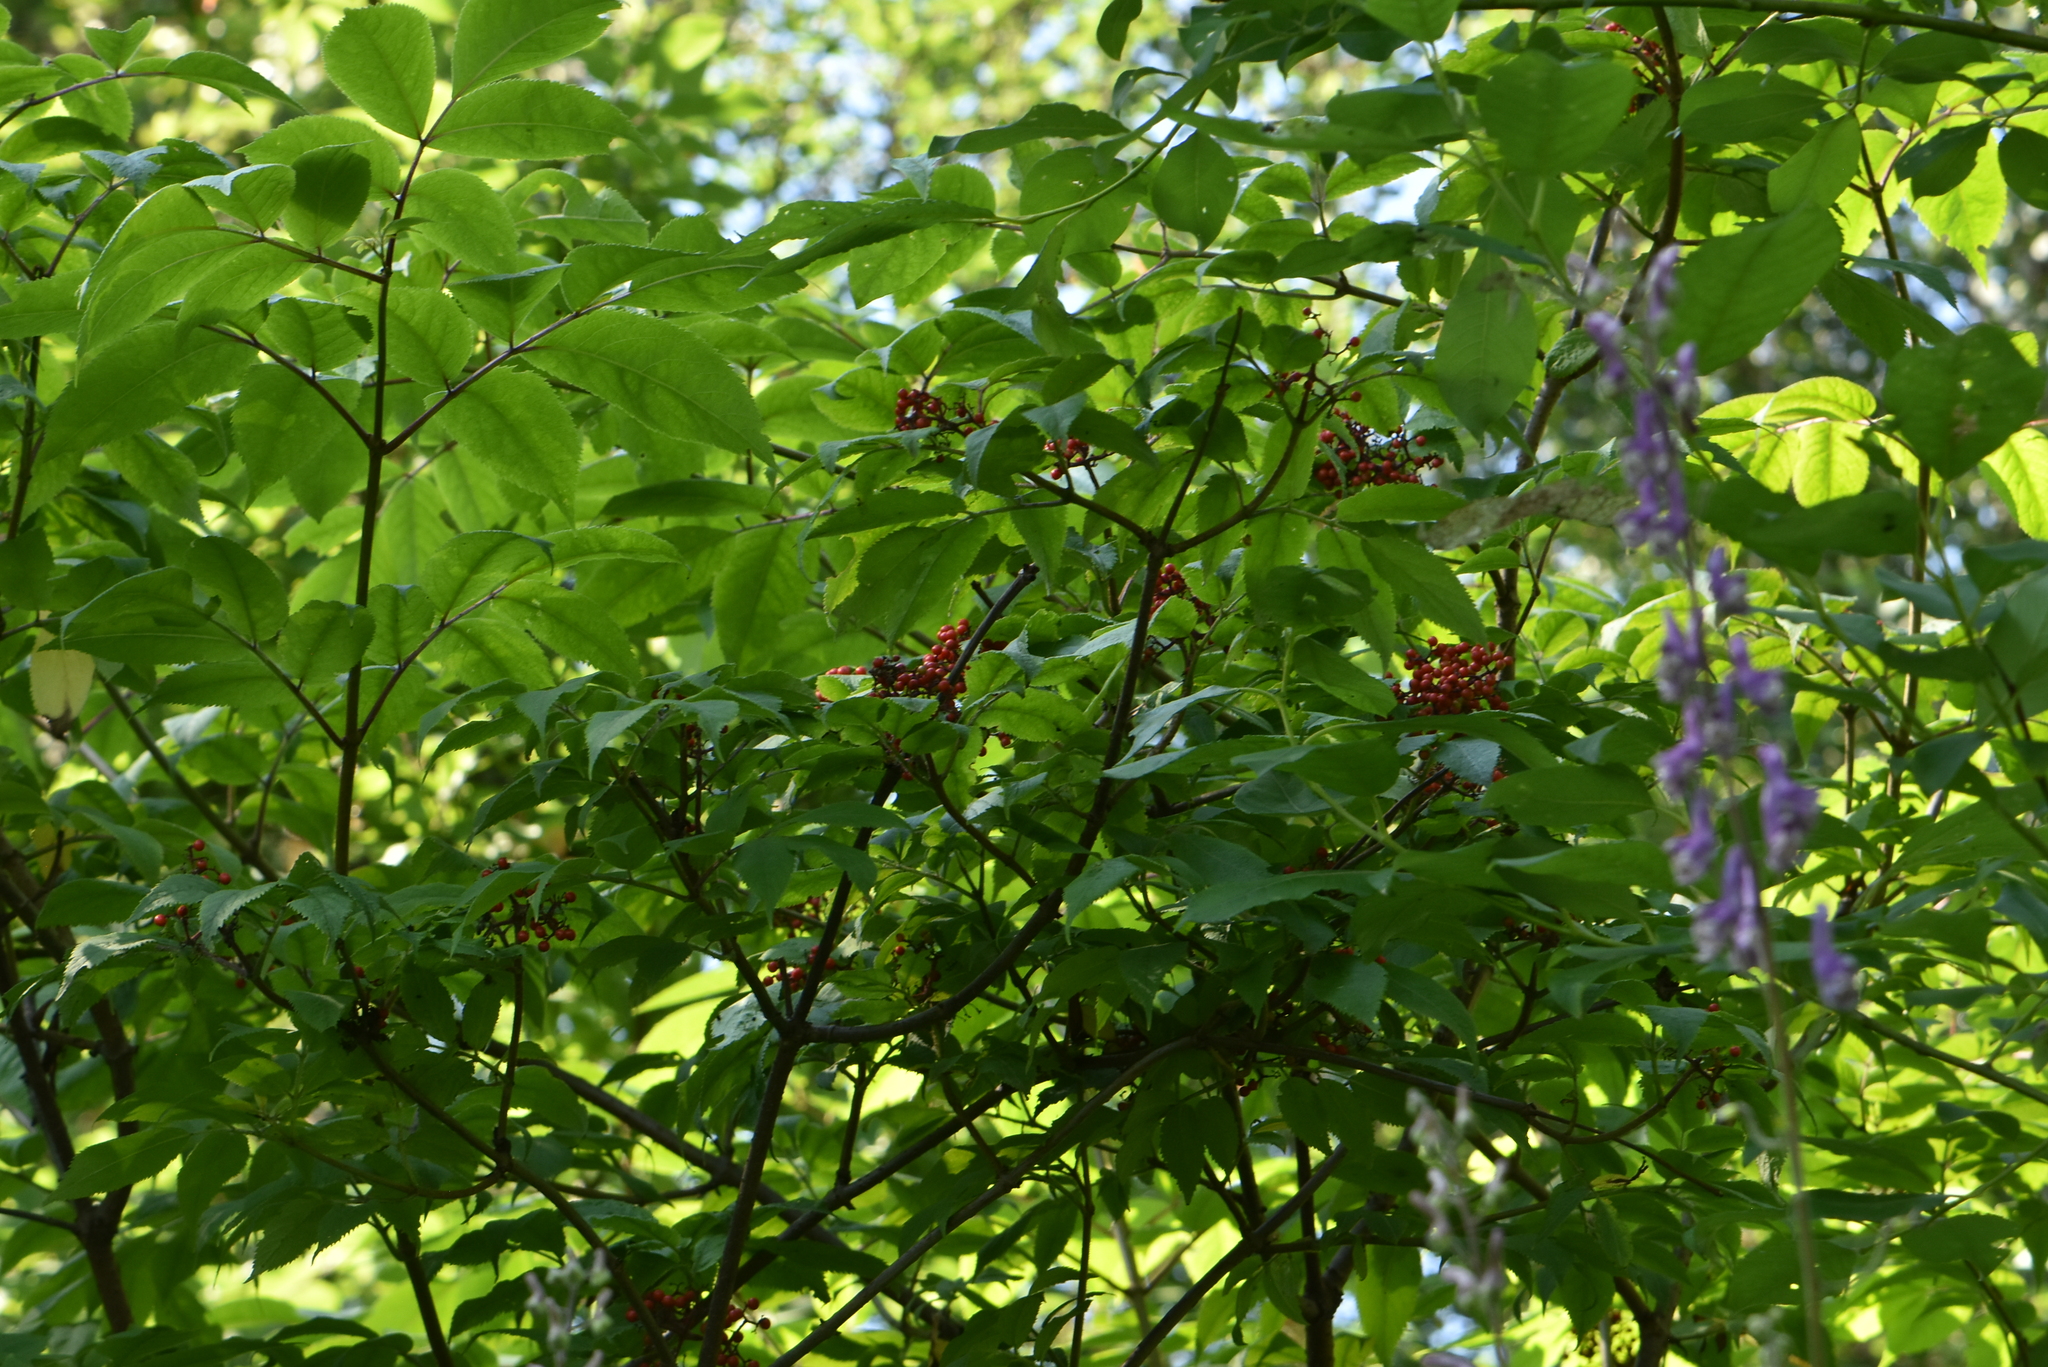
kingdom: Plantae
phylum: Tracheophyta
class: Magnoliopsida
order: Dipsacales
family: Viburnaceae
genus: Sambucus
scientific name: Sambucus sibirica
